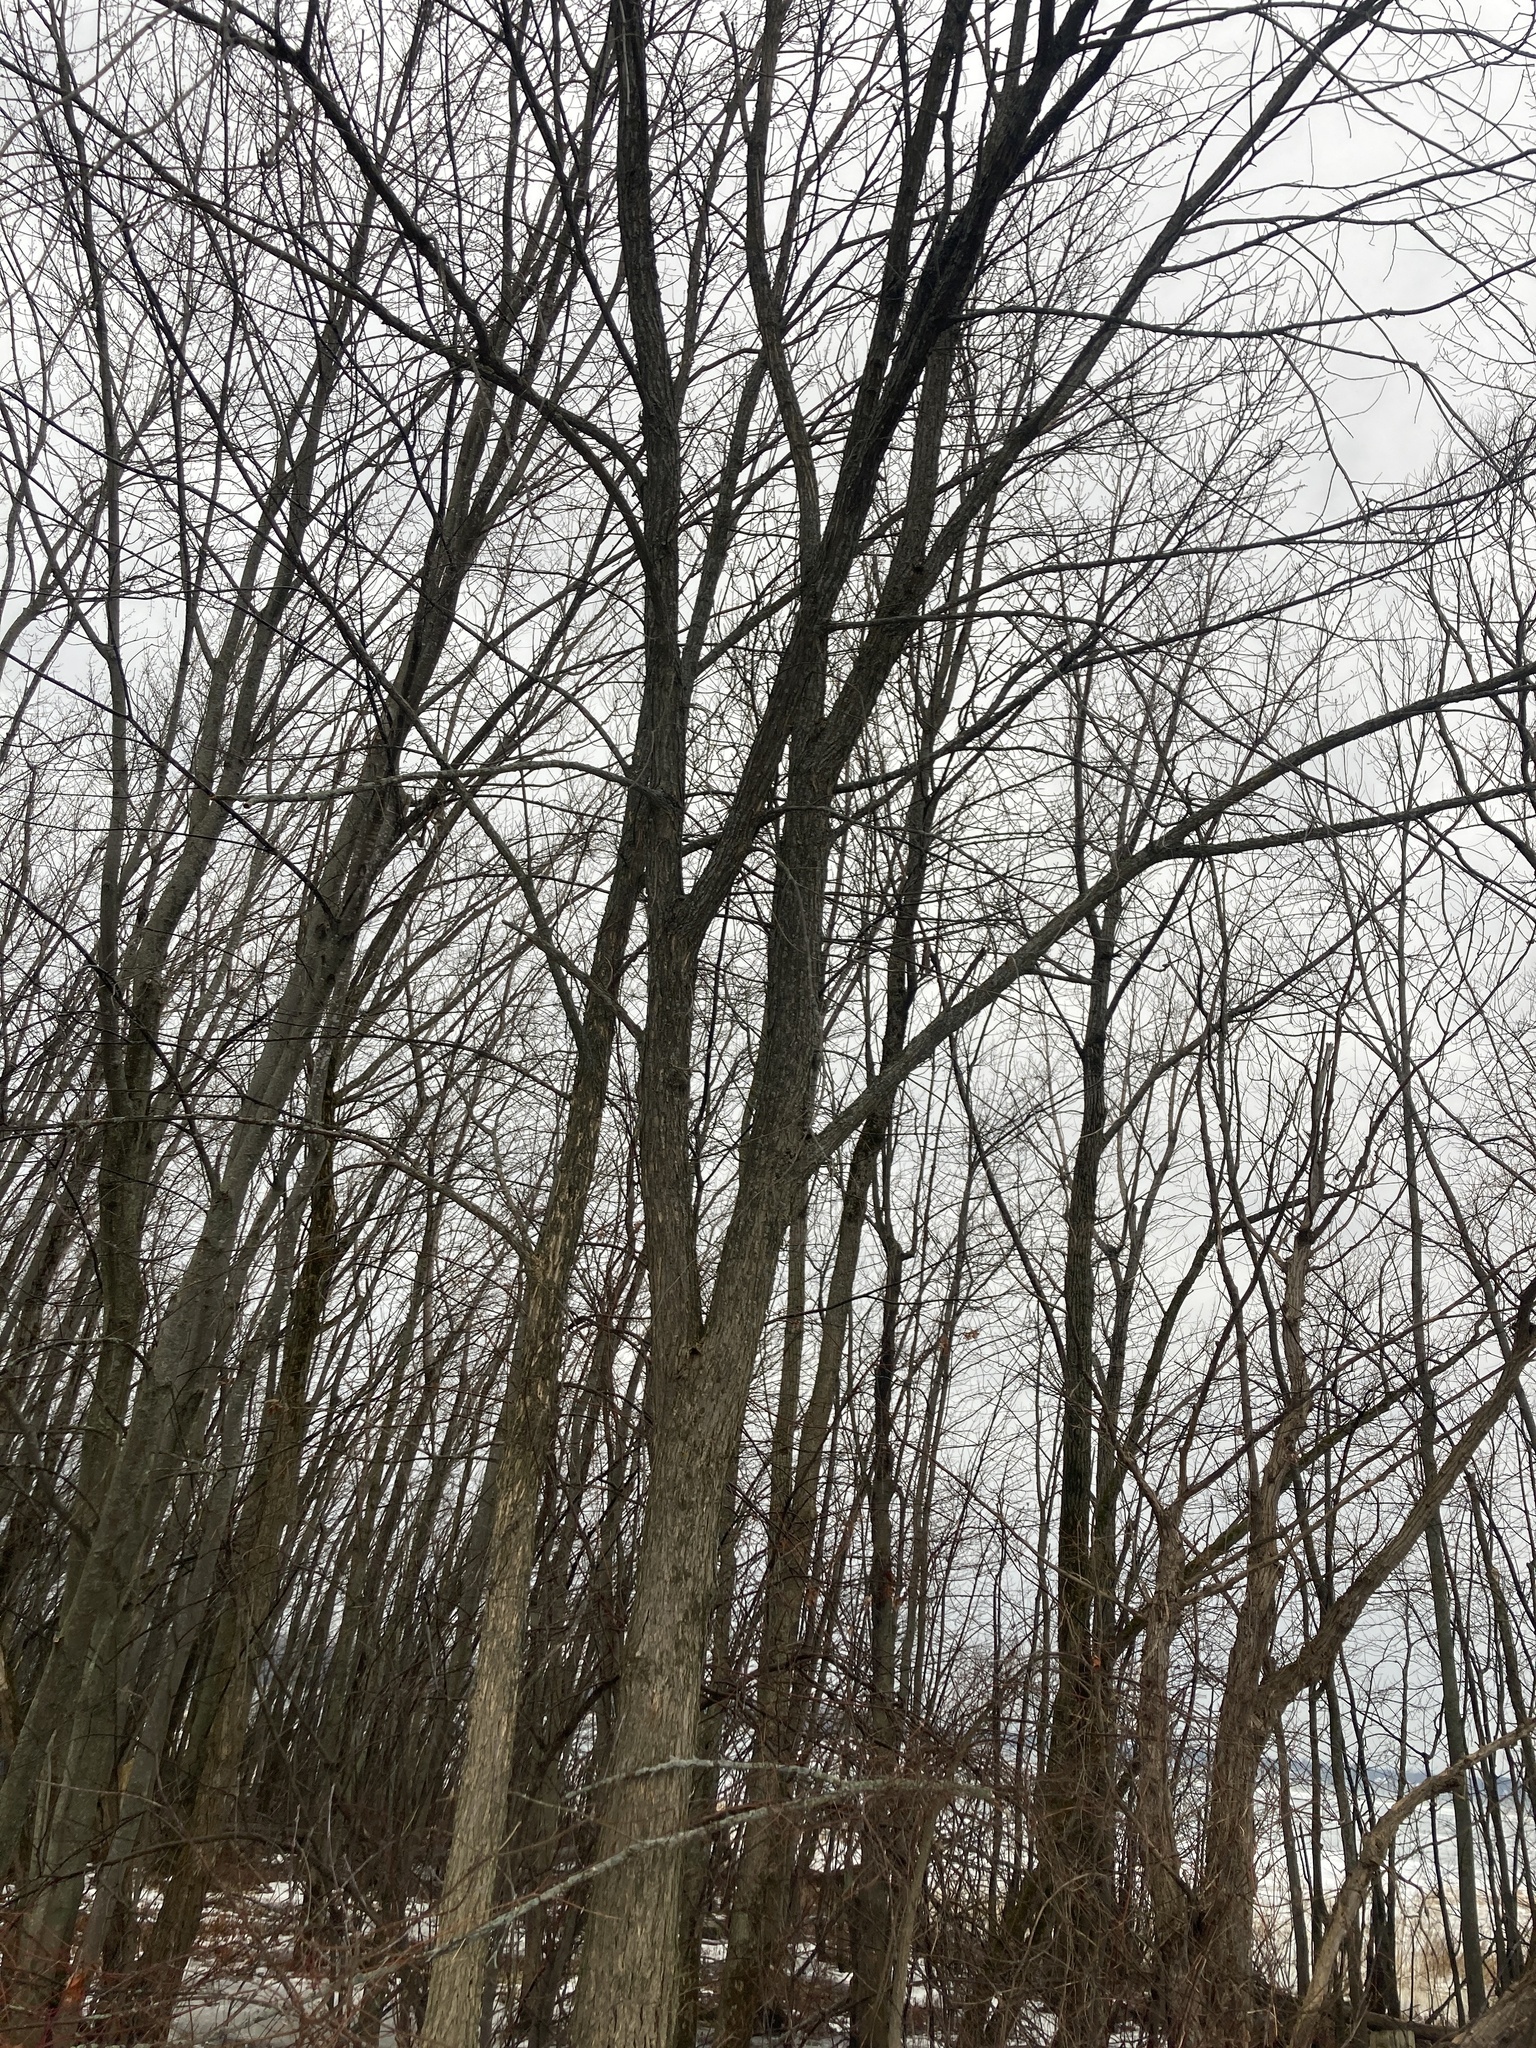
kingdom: Plantae
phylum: Tracheophyta
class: Magnoliopsida
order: Rosales
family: Ulmaceae
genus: Ulmus
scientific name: Ulmus americana
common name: American elm
